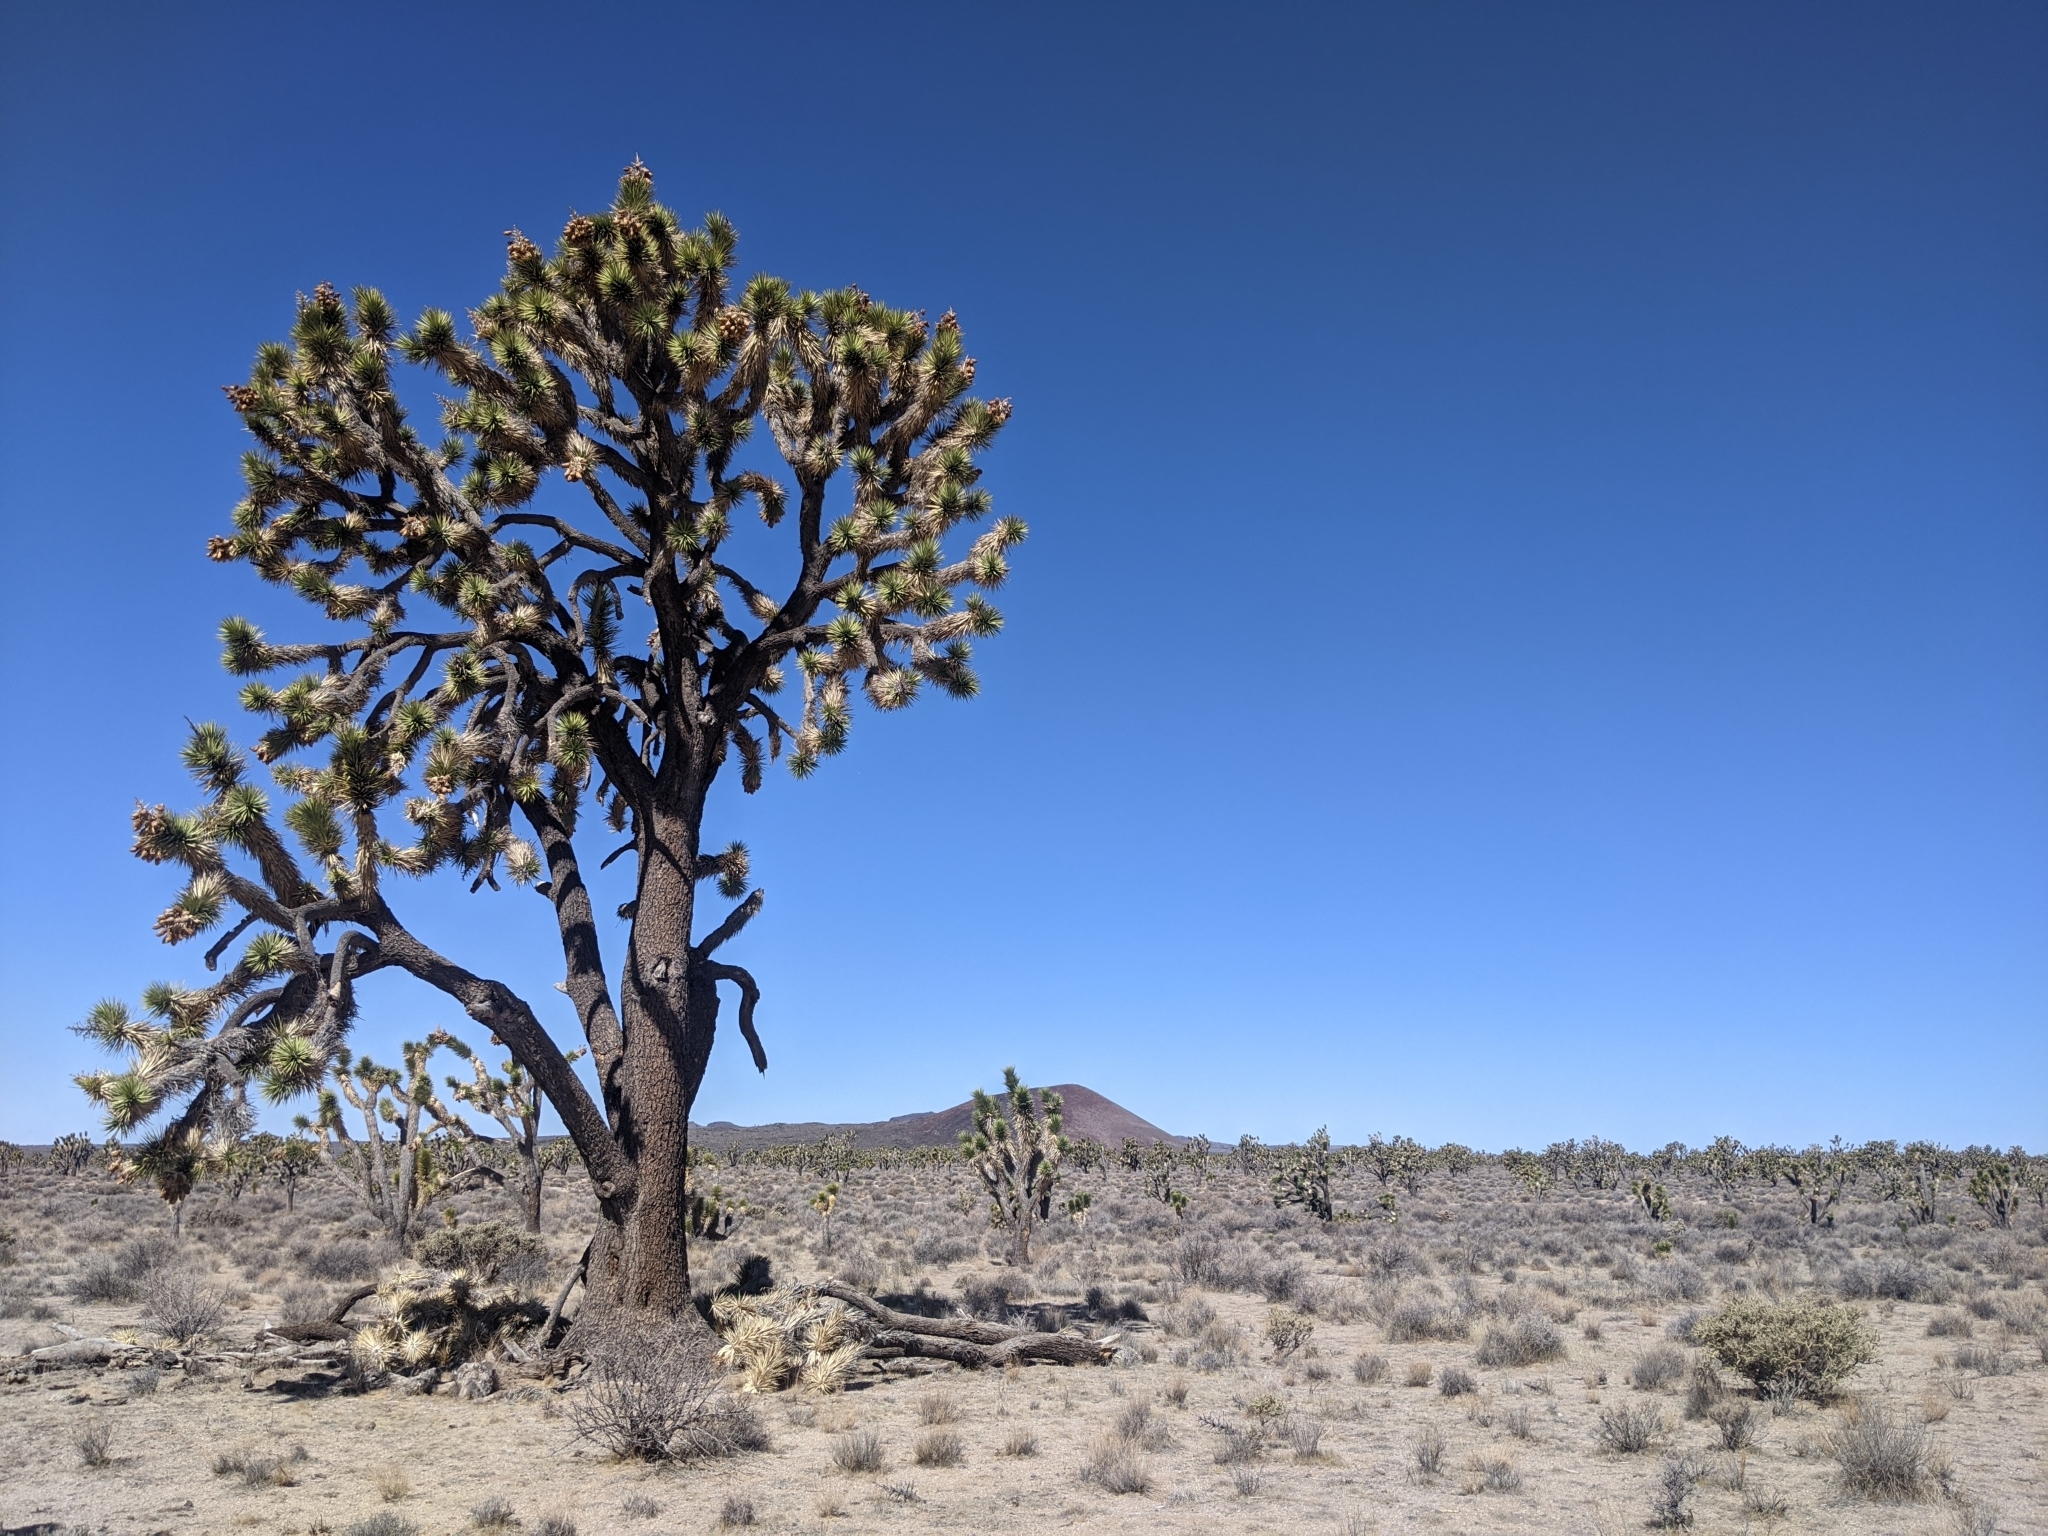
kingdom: Plantae
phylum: Tracheophyta
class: Liliopsida
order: Asparagales
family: Asparagaceae
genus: Yucca
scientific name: Yucca brevifolia
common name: Joshua tree
